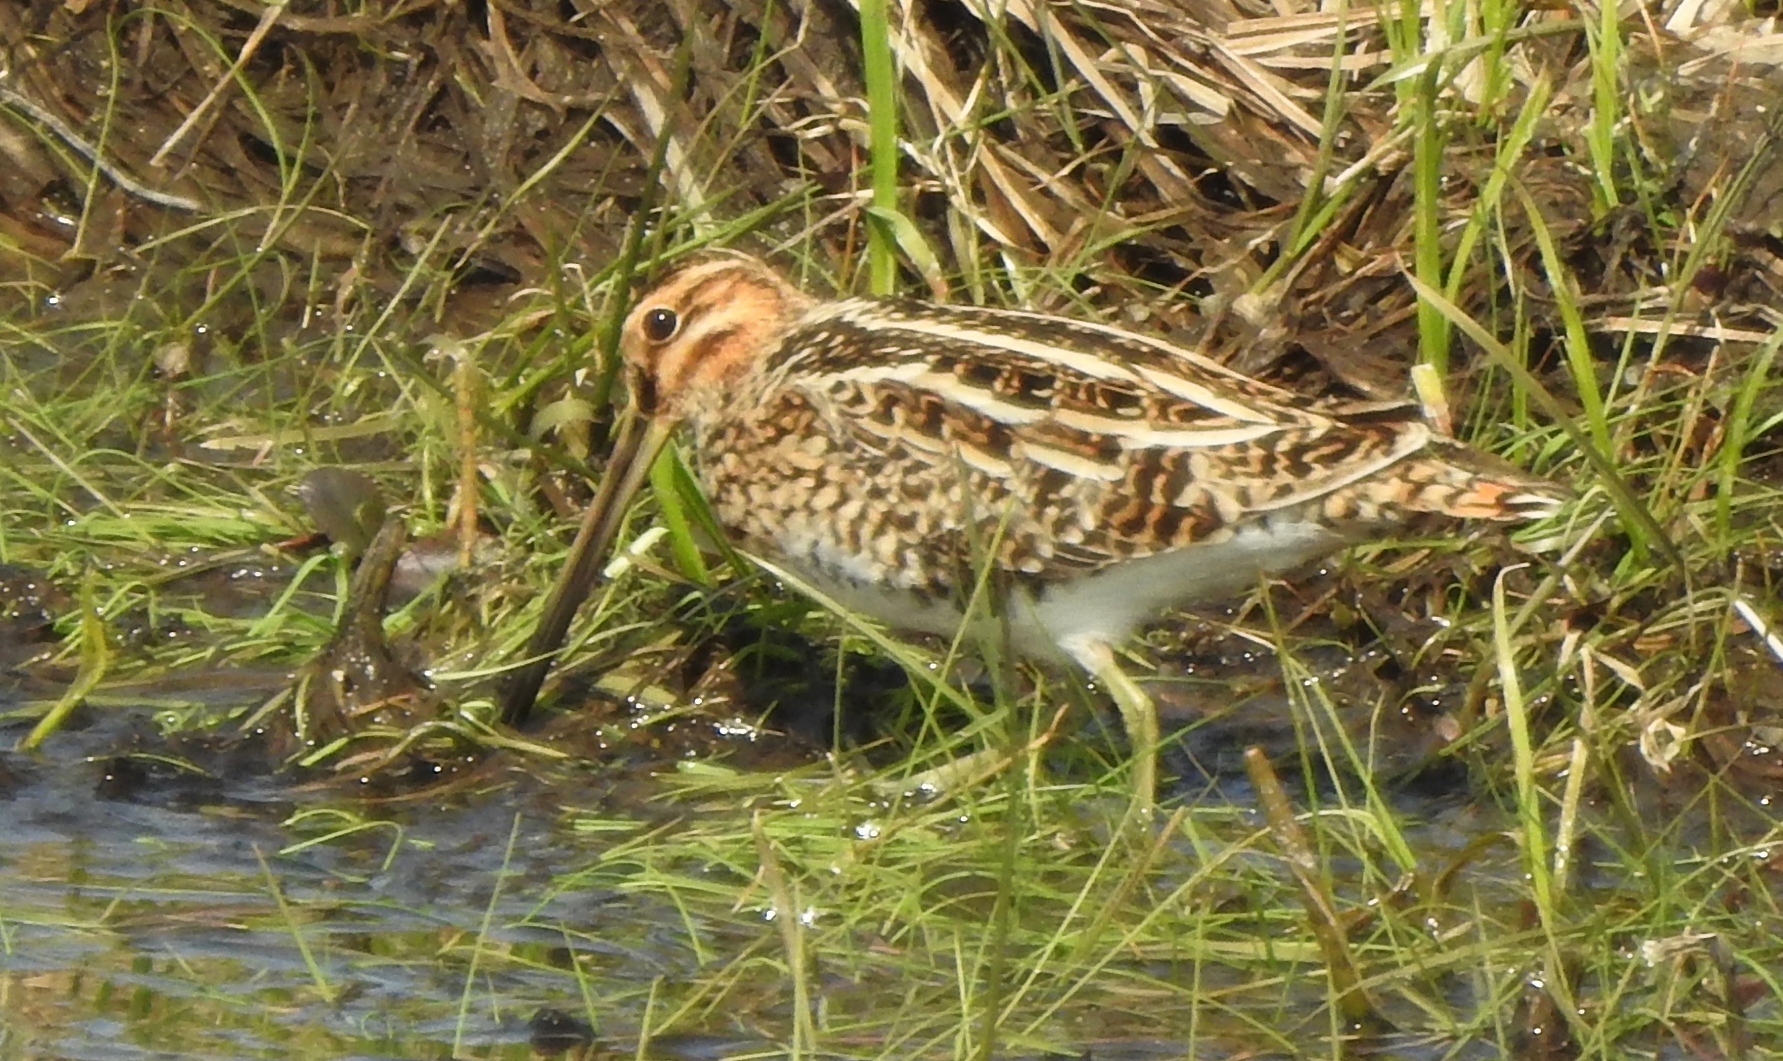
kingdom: Animalia
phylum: Chordata
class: Aves
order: Charadriiformes
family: Scolopacidae
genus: Gallinago
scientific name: Gallinago gallinago
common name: Common snipe
